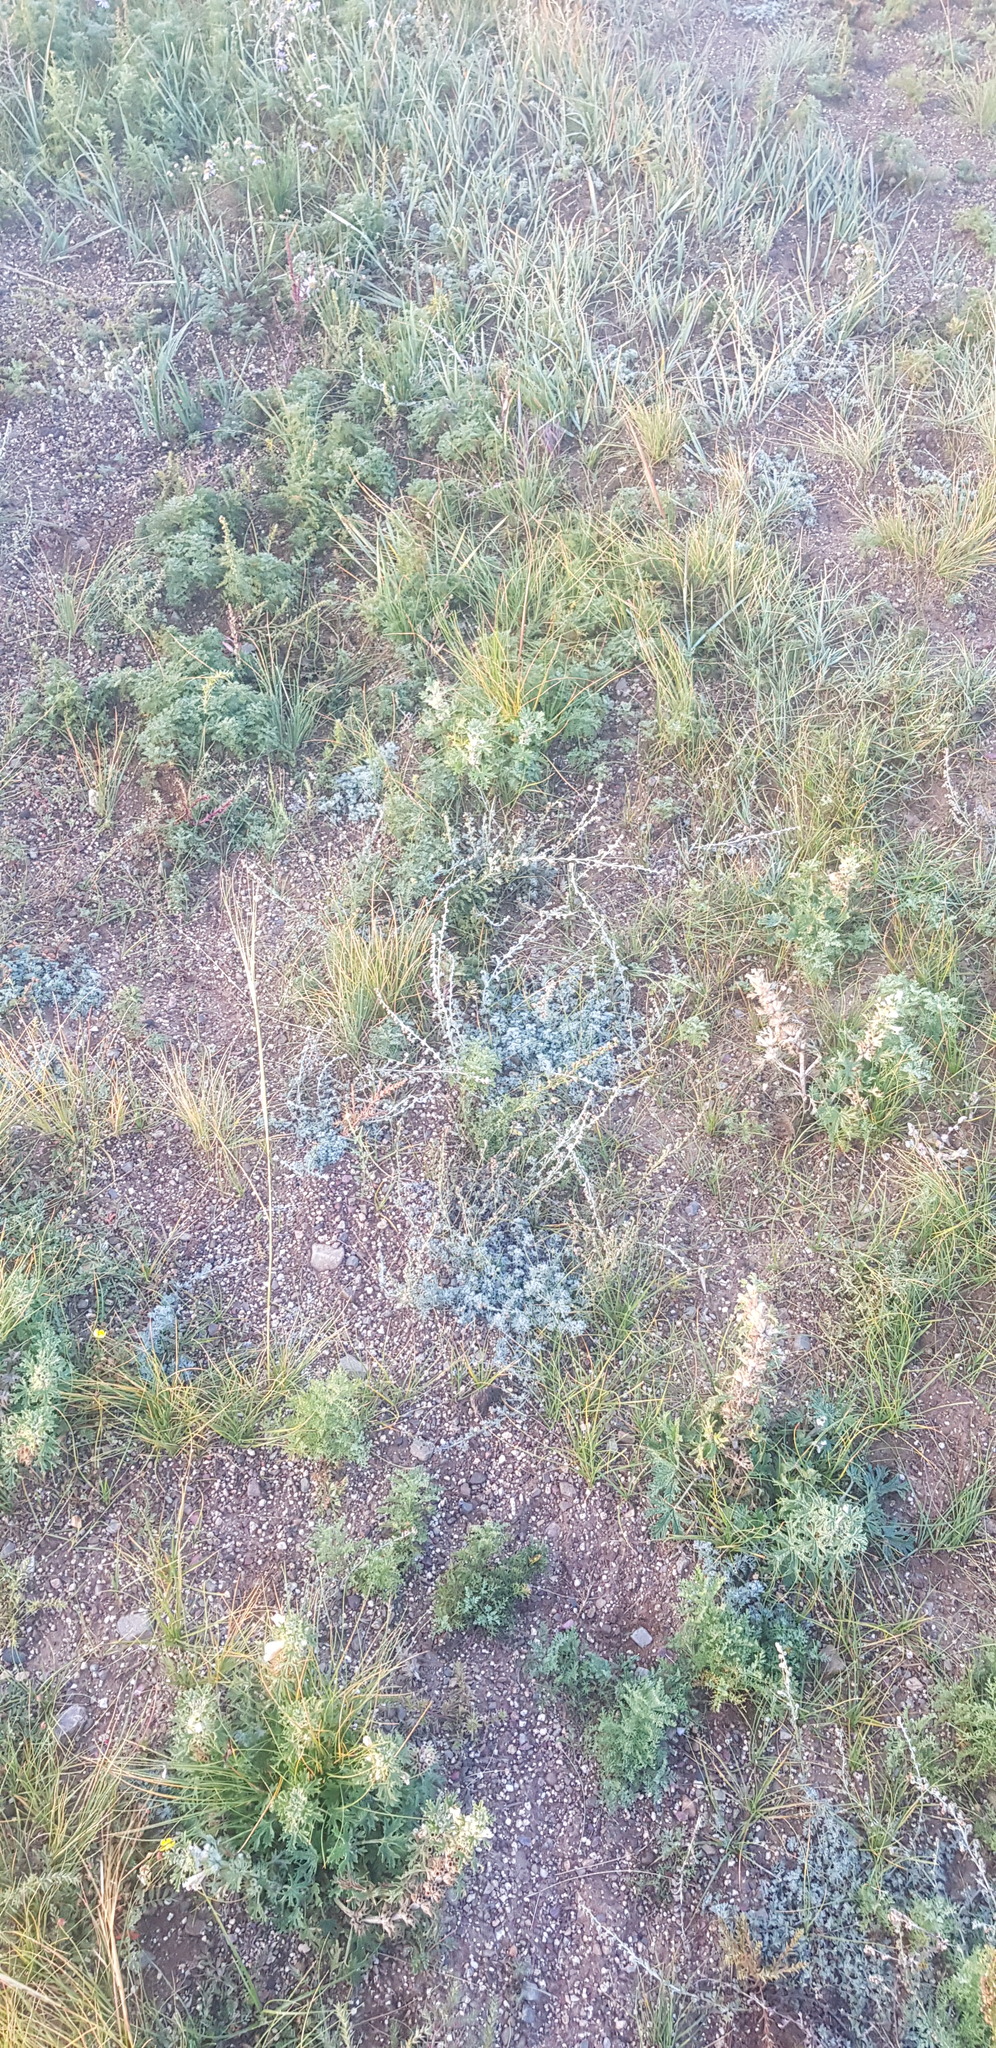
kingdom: Plantae
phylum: Tracheophyta
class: Magnoliopsida
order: Asterales
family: Asteraceae
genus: Artemisia
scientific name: Artemisia adamsii
